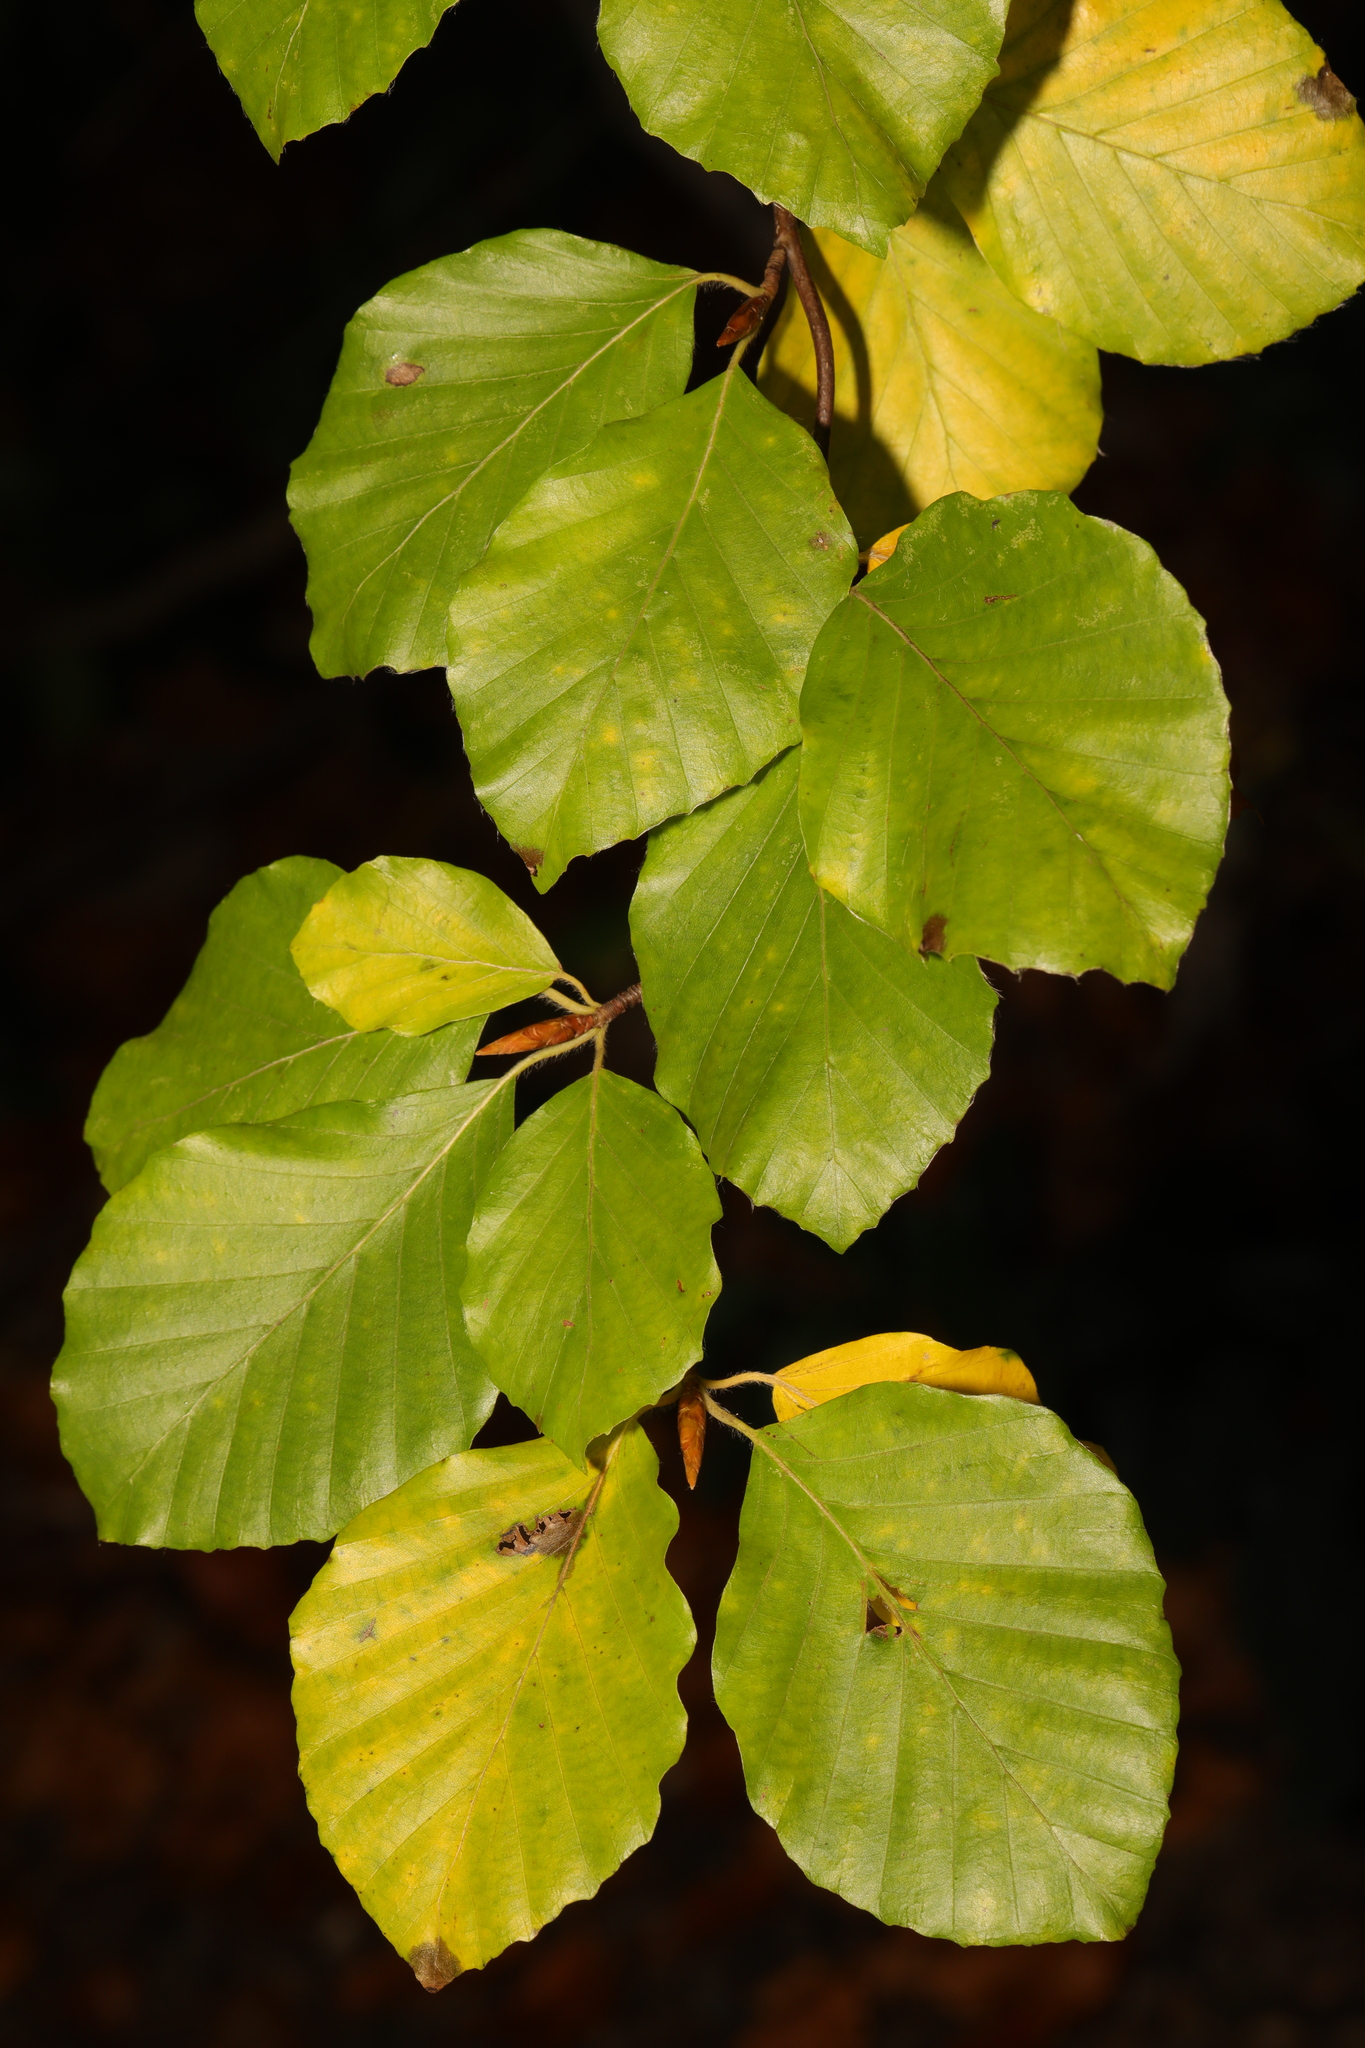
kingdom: Plantae
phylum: Tracheophyta
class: Magnoliopsida
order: Fagales
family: Fagaceae
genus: Fagus
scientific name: Fagus sylvatica
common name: Beech
